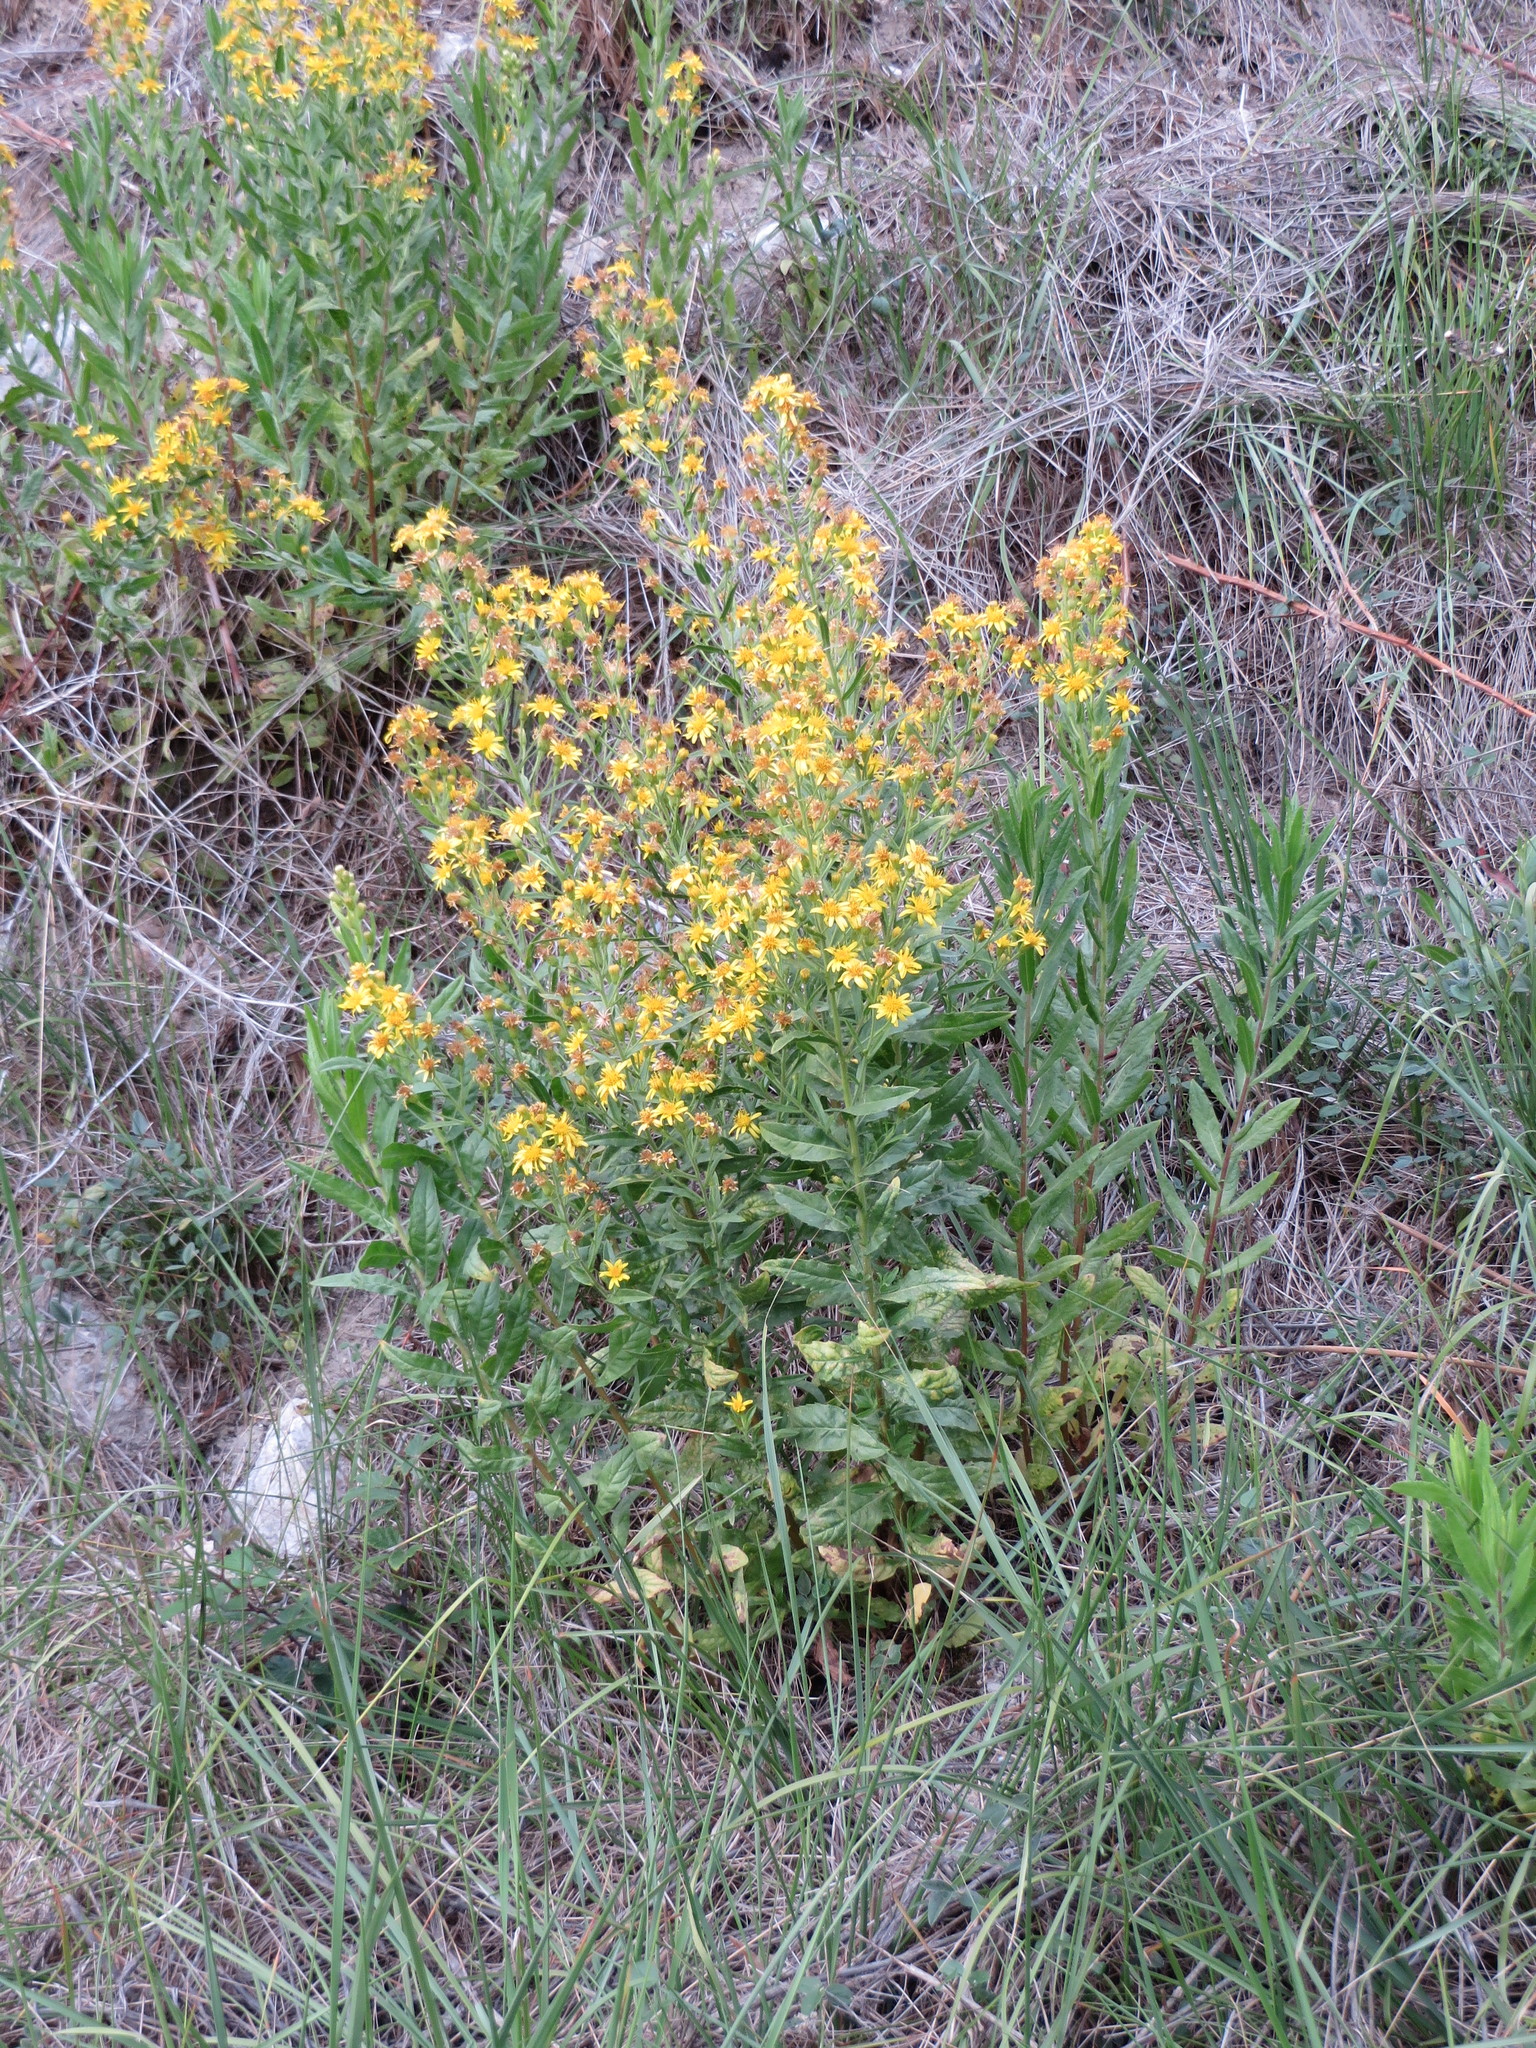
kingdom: Plantae
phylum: Tracheophyta
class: Magnoliopsida
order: Asterales
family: Asteraceae
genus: Dittrichia
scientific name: Dittrichia viscosa
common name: Woody fleabane
